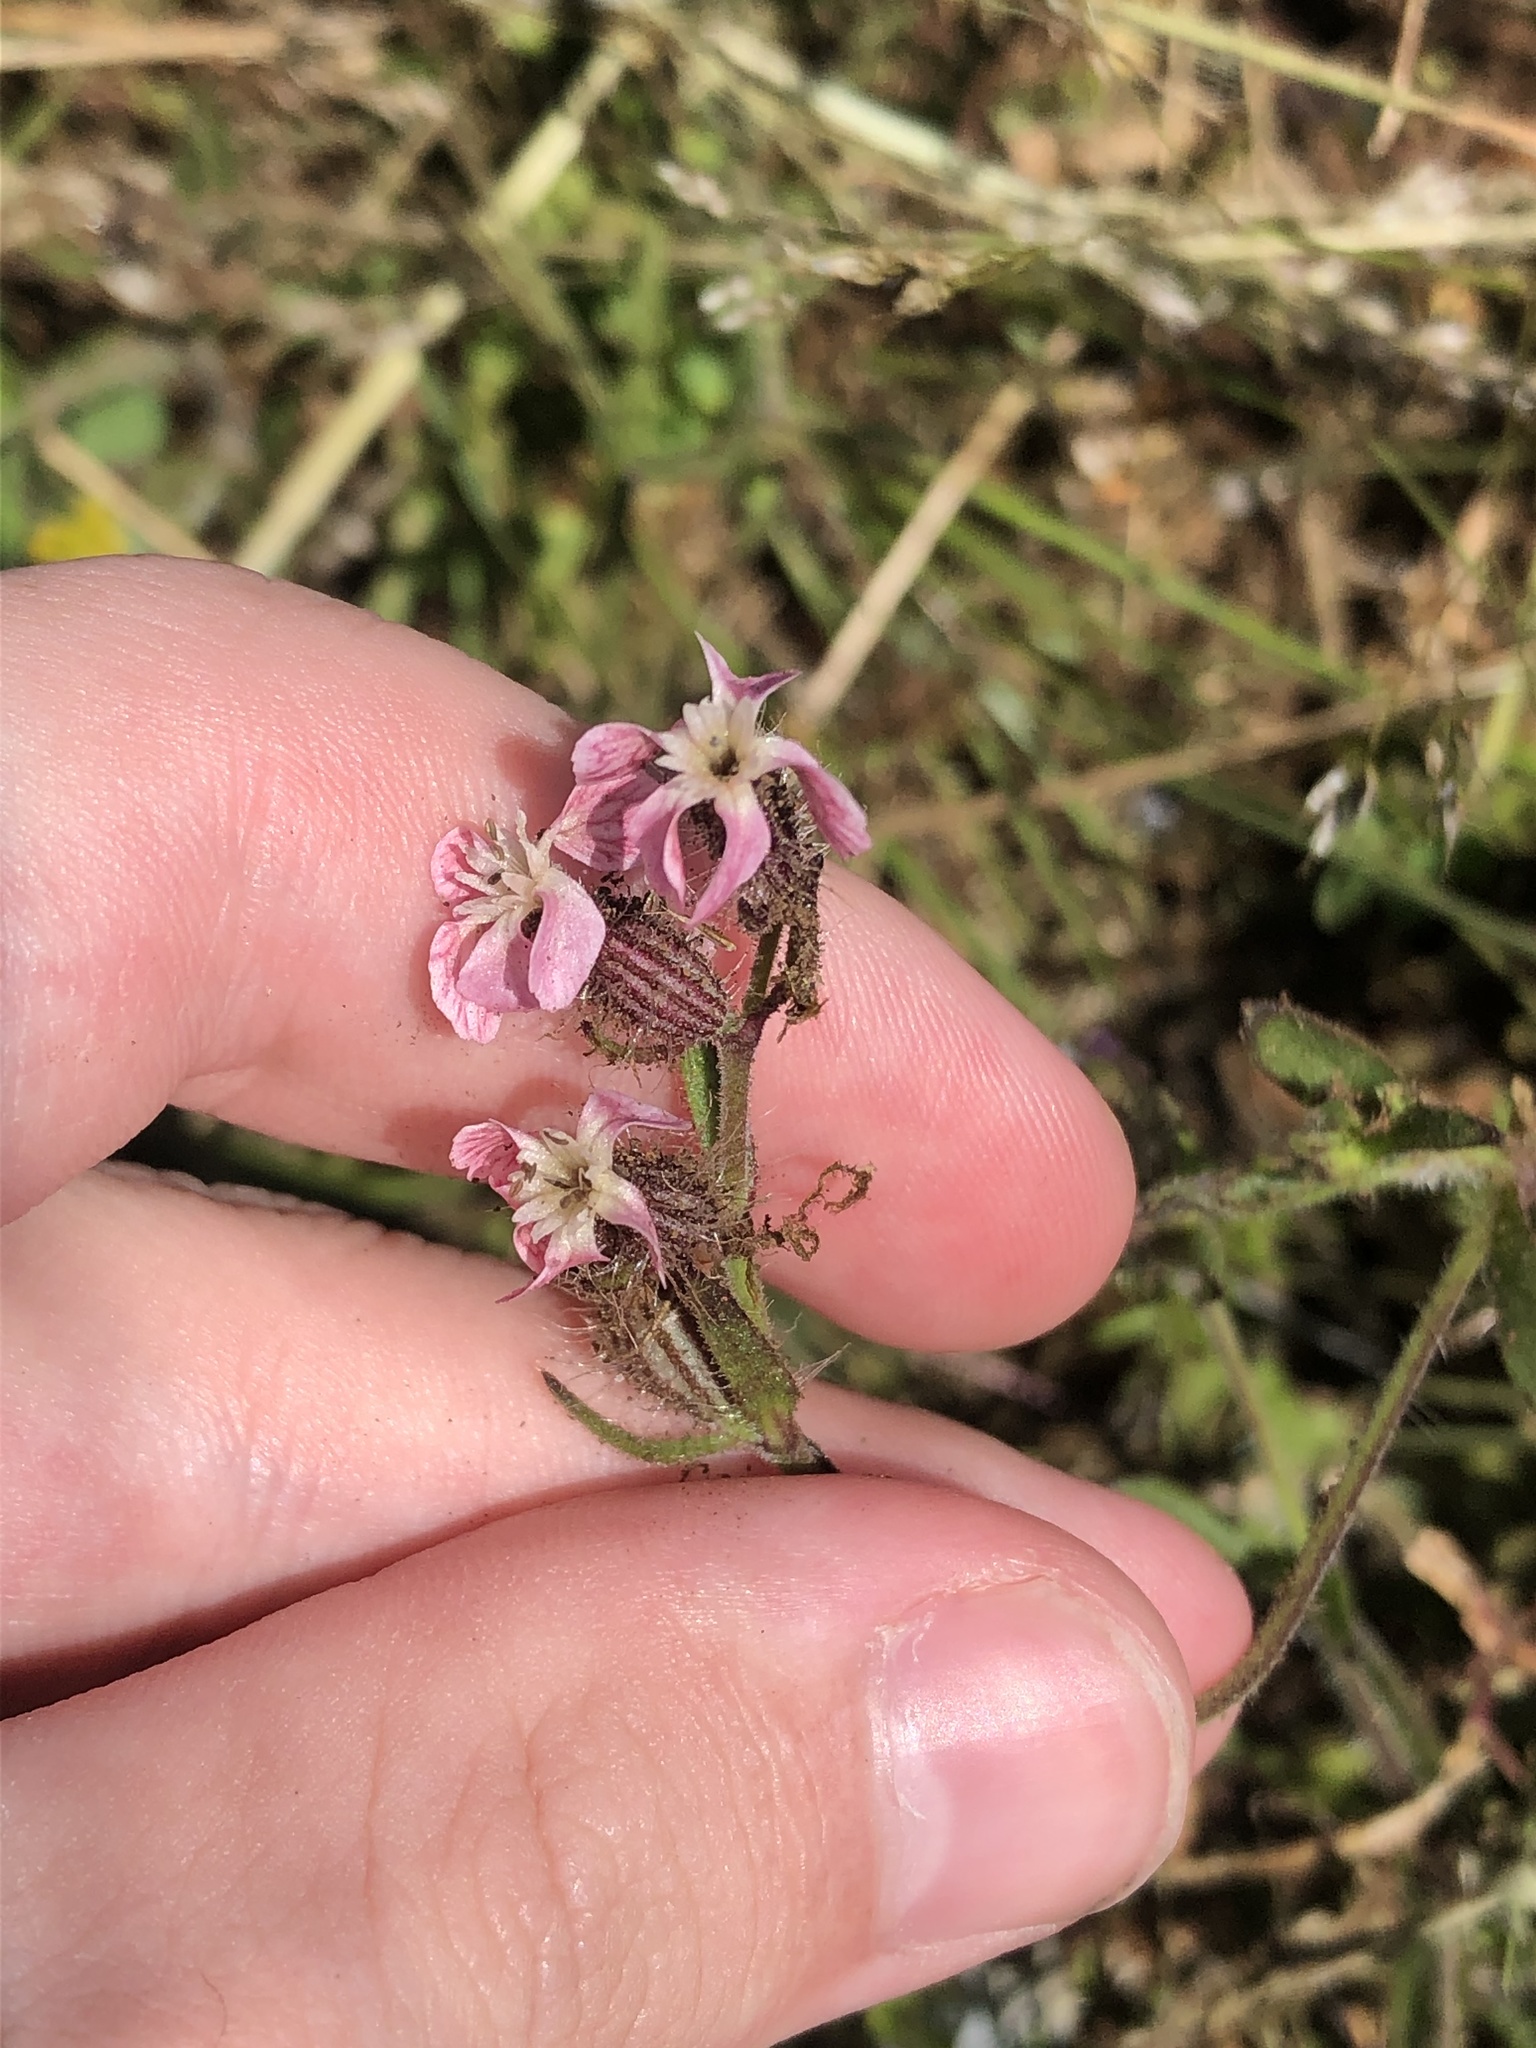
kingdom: Plantae
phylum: Tracheophyta
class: Magnoliopsida
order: Caryophyllales
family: Caryophyllaceae
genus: Silene
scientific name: Silene gallica
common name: Small-flowered catchfly
